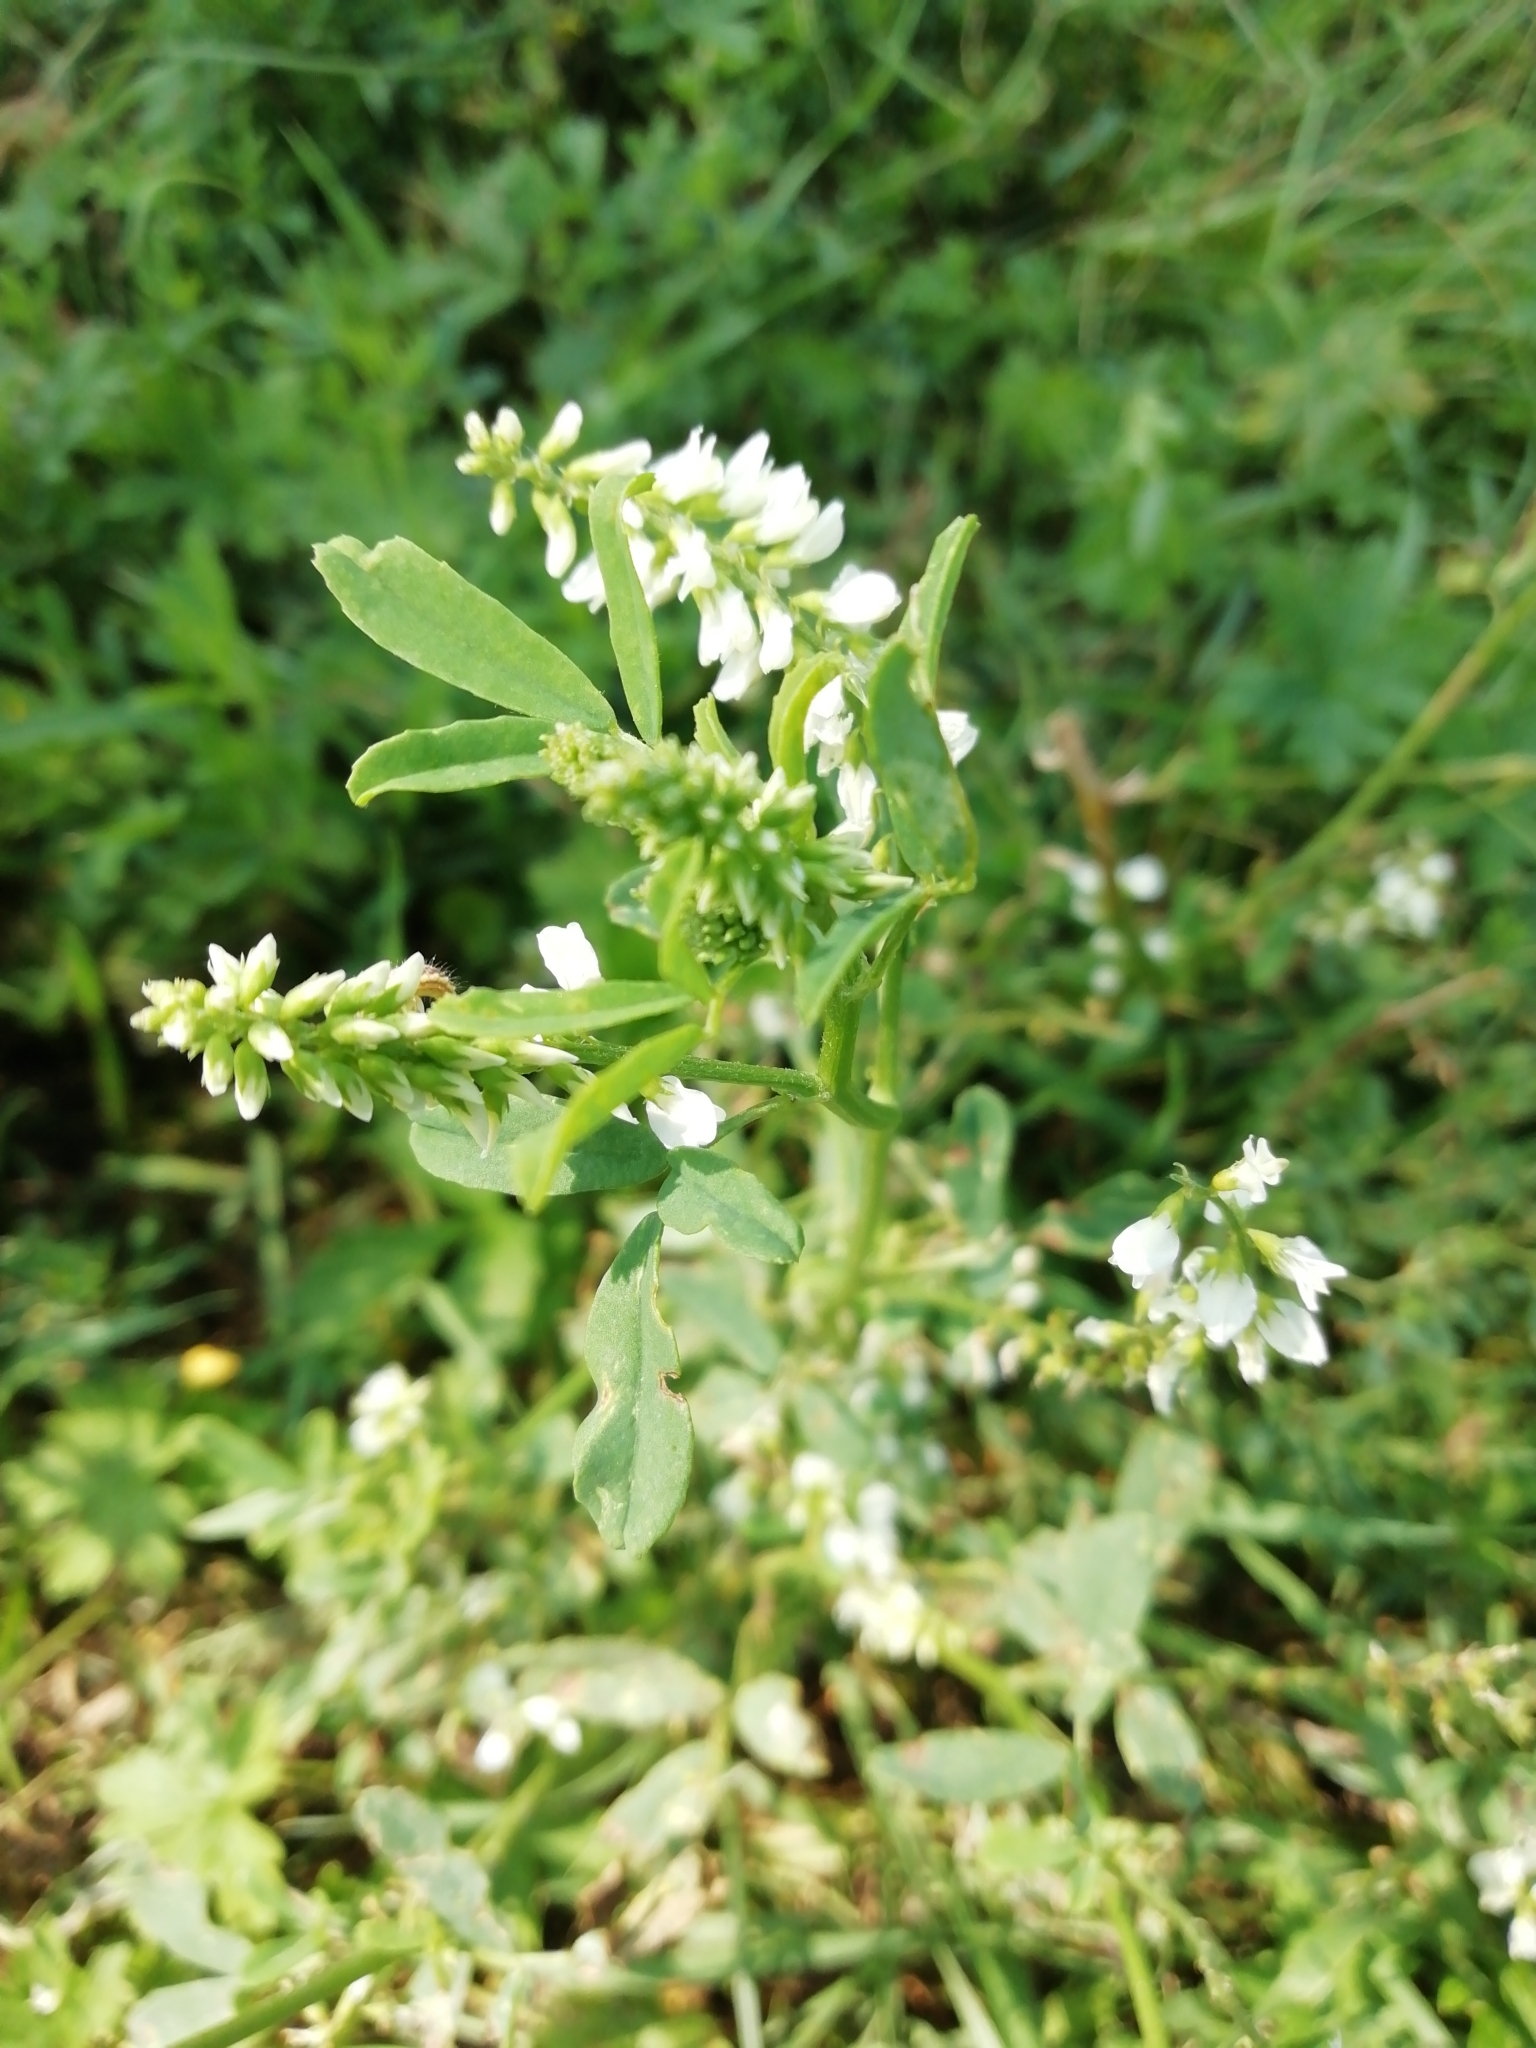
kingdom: Plantae
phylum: Tracheophyta
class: Magnoliopsida
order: Fabales
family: Fabaceae
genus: Melilotus
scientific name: Melilotus albus
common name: White melilot
